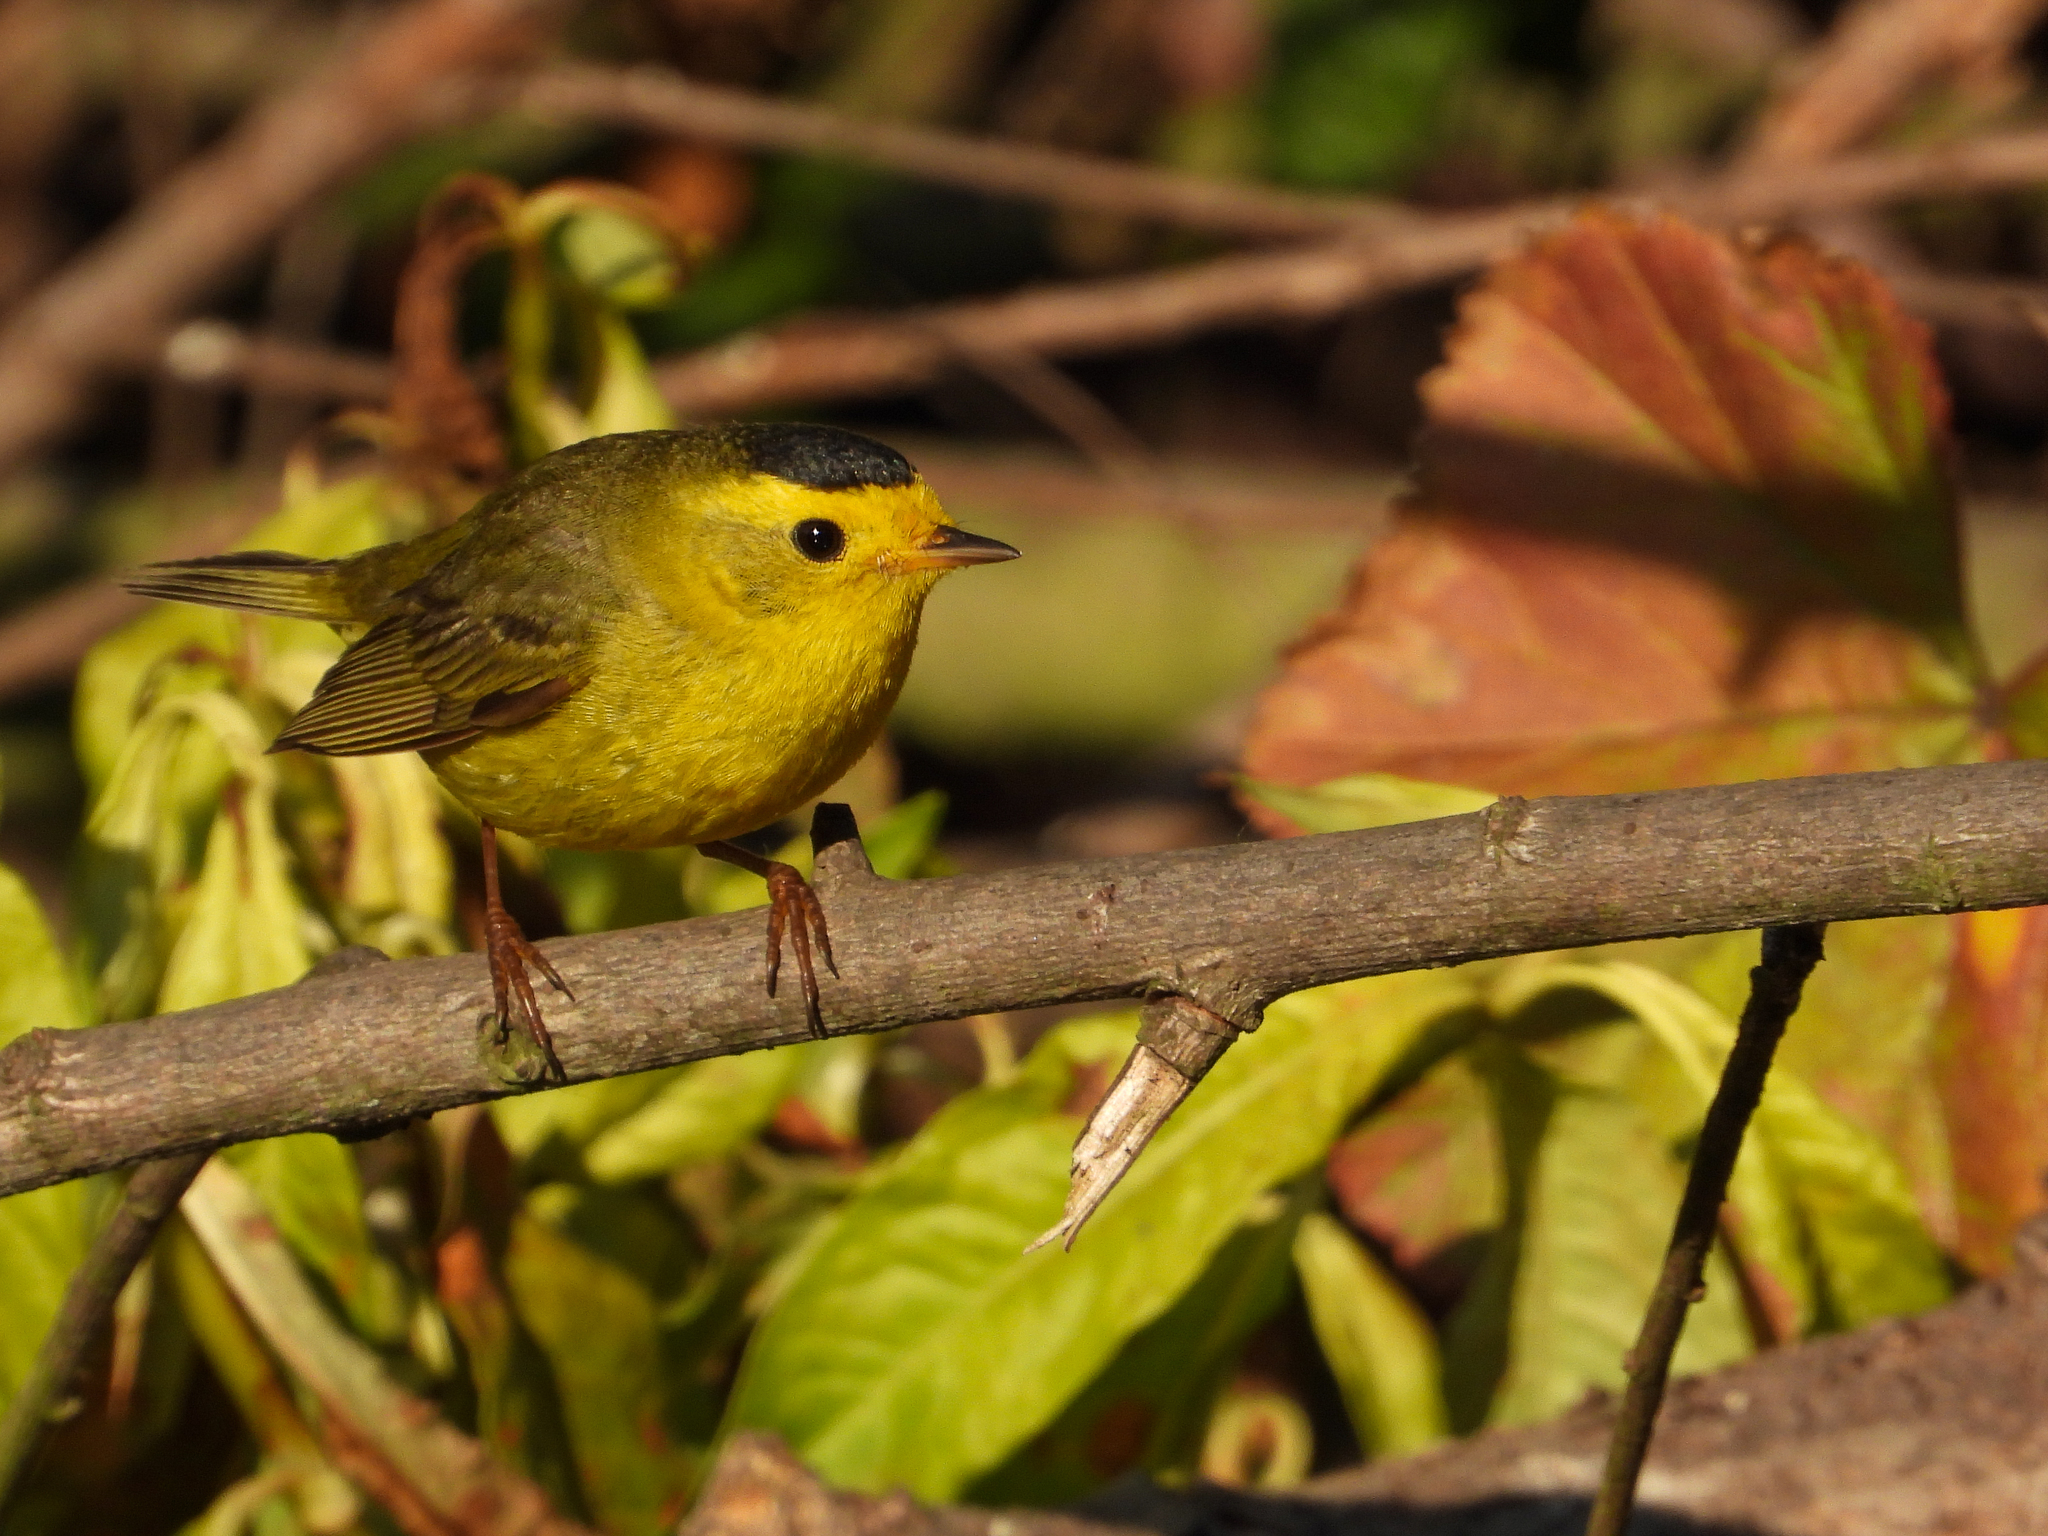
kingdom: Animalia
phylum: Chordata
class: Aves
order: Passeriformes
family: Parulidae
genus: Cardellina
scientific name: Cardellina pusilla
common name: Wilson's warbler
